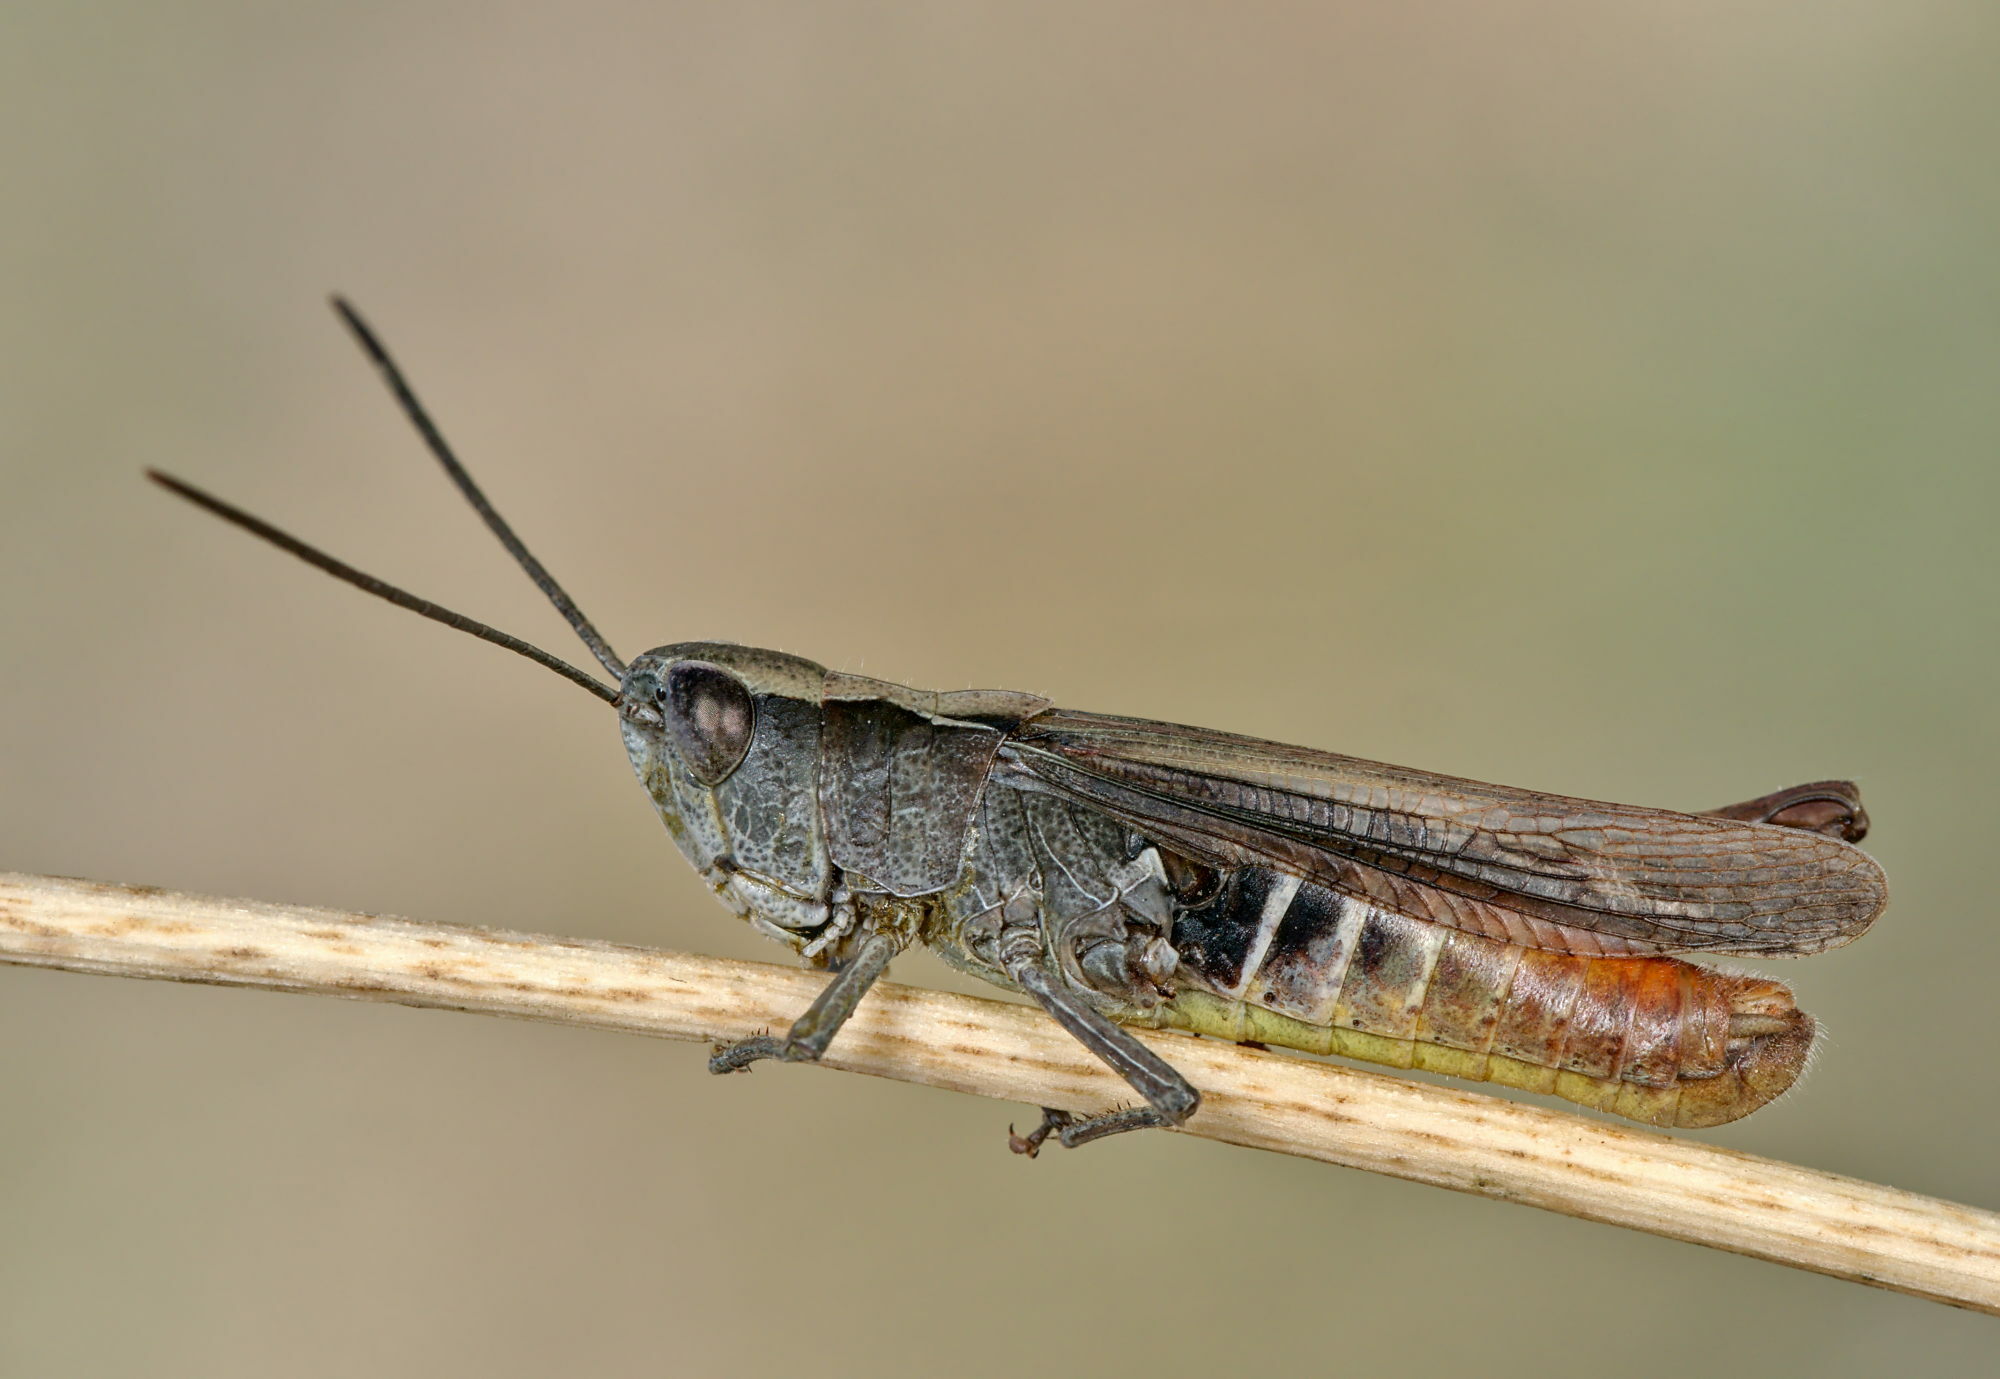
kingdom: Animalia
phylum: Arthropoda
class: Insecta
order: Orthoptera
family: Acrididae
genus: Chorthippus
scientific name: Chorthippus vagans
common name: Heath grasshopper
